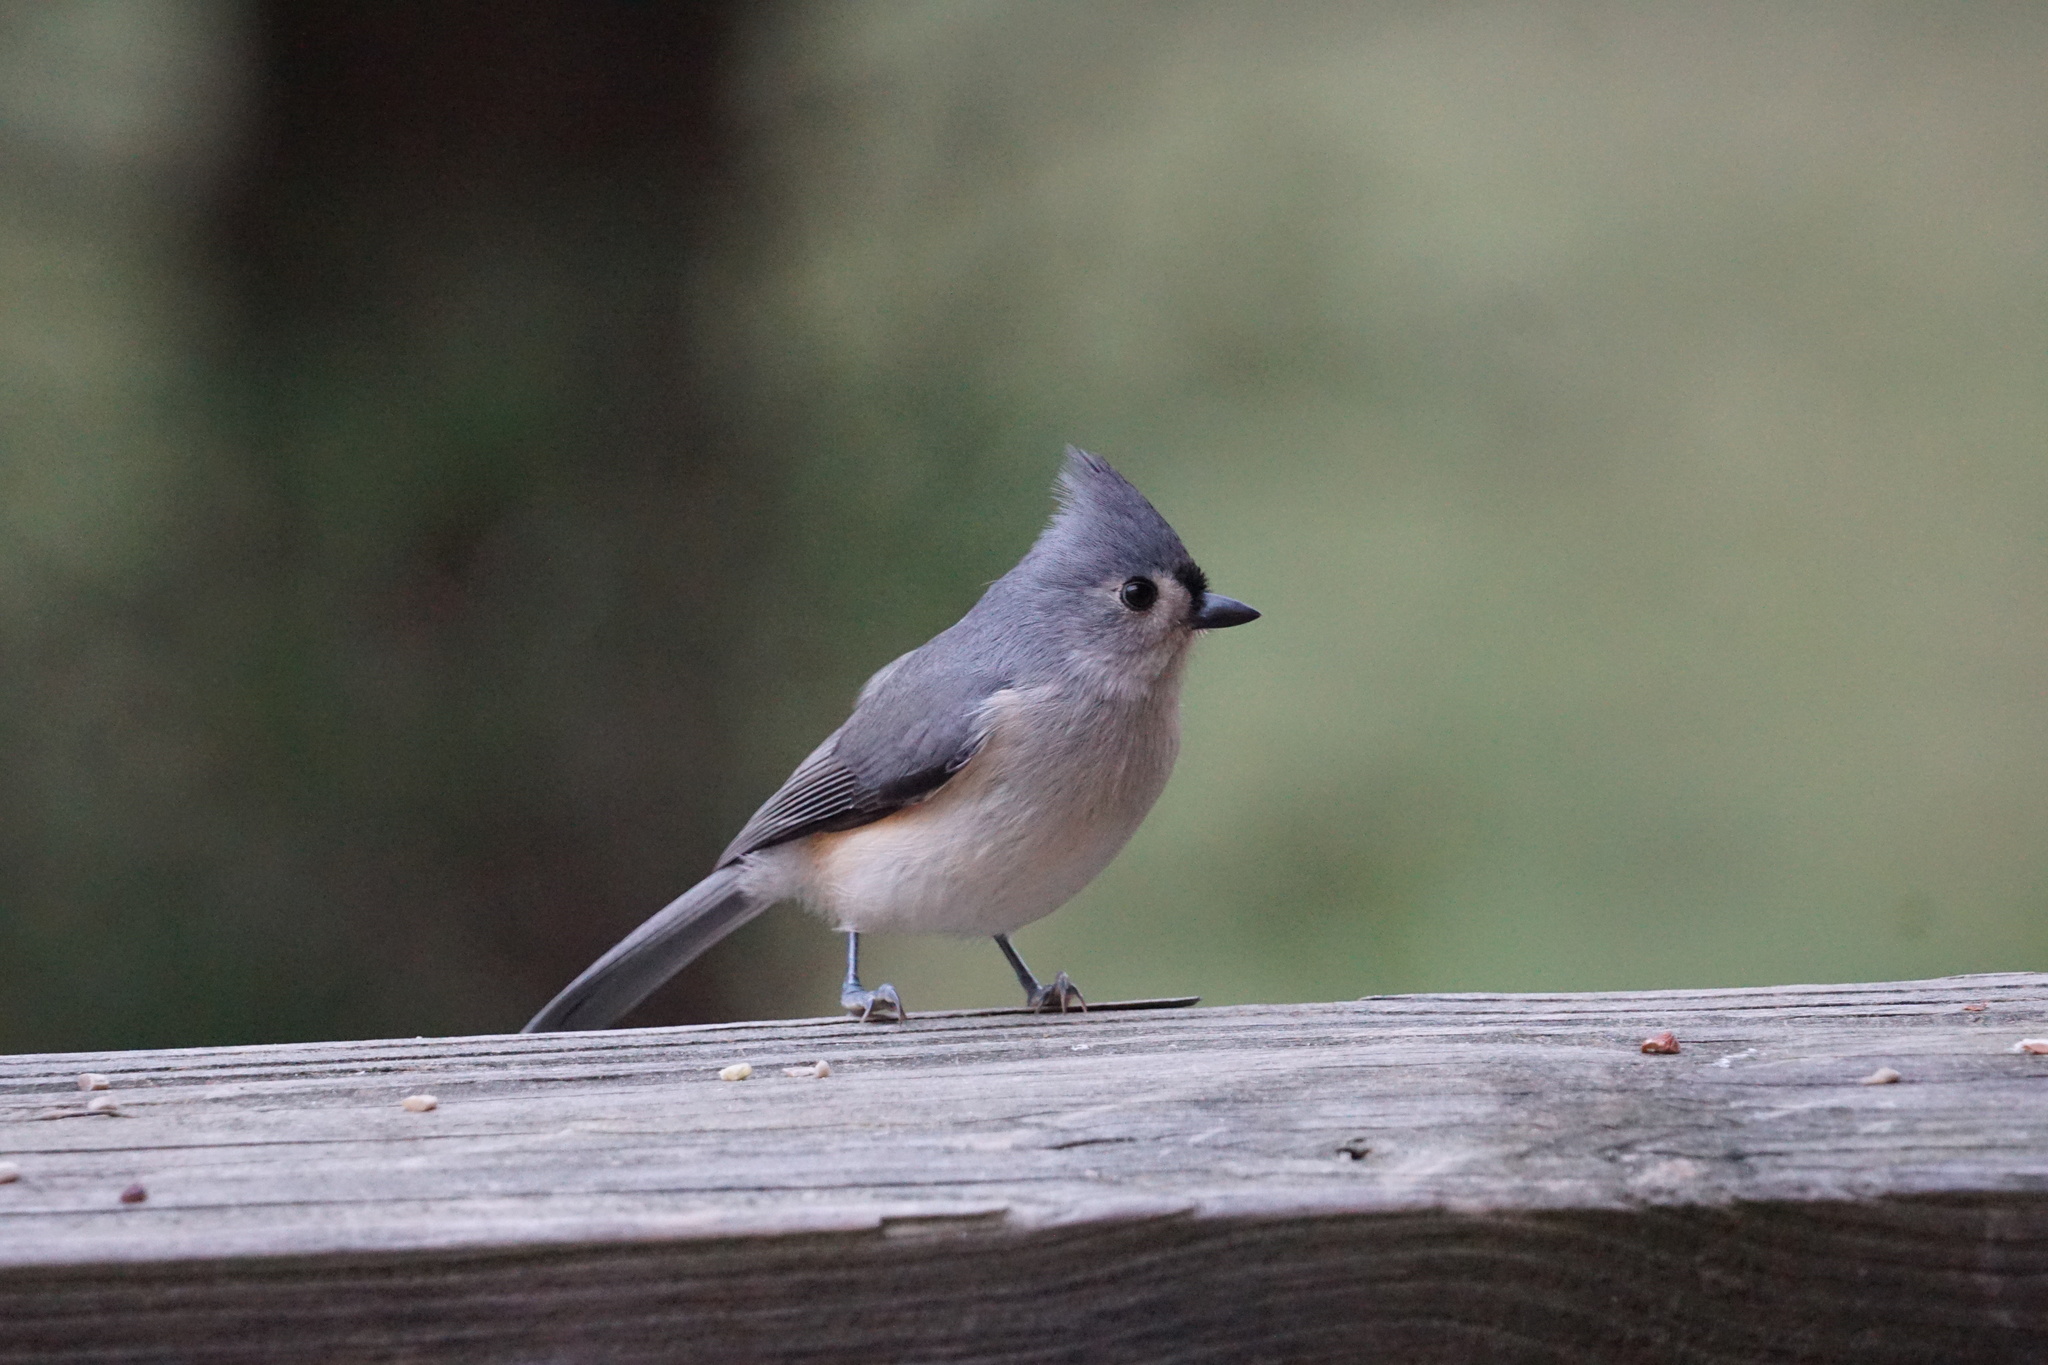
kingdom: Animalia
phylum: Chordata
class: Aves
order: Passeriformes
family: Paridae
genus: Baeolophus
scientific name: Baeolophus bicolor
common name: Tufted titmouse
